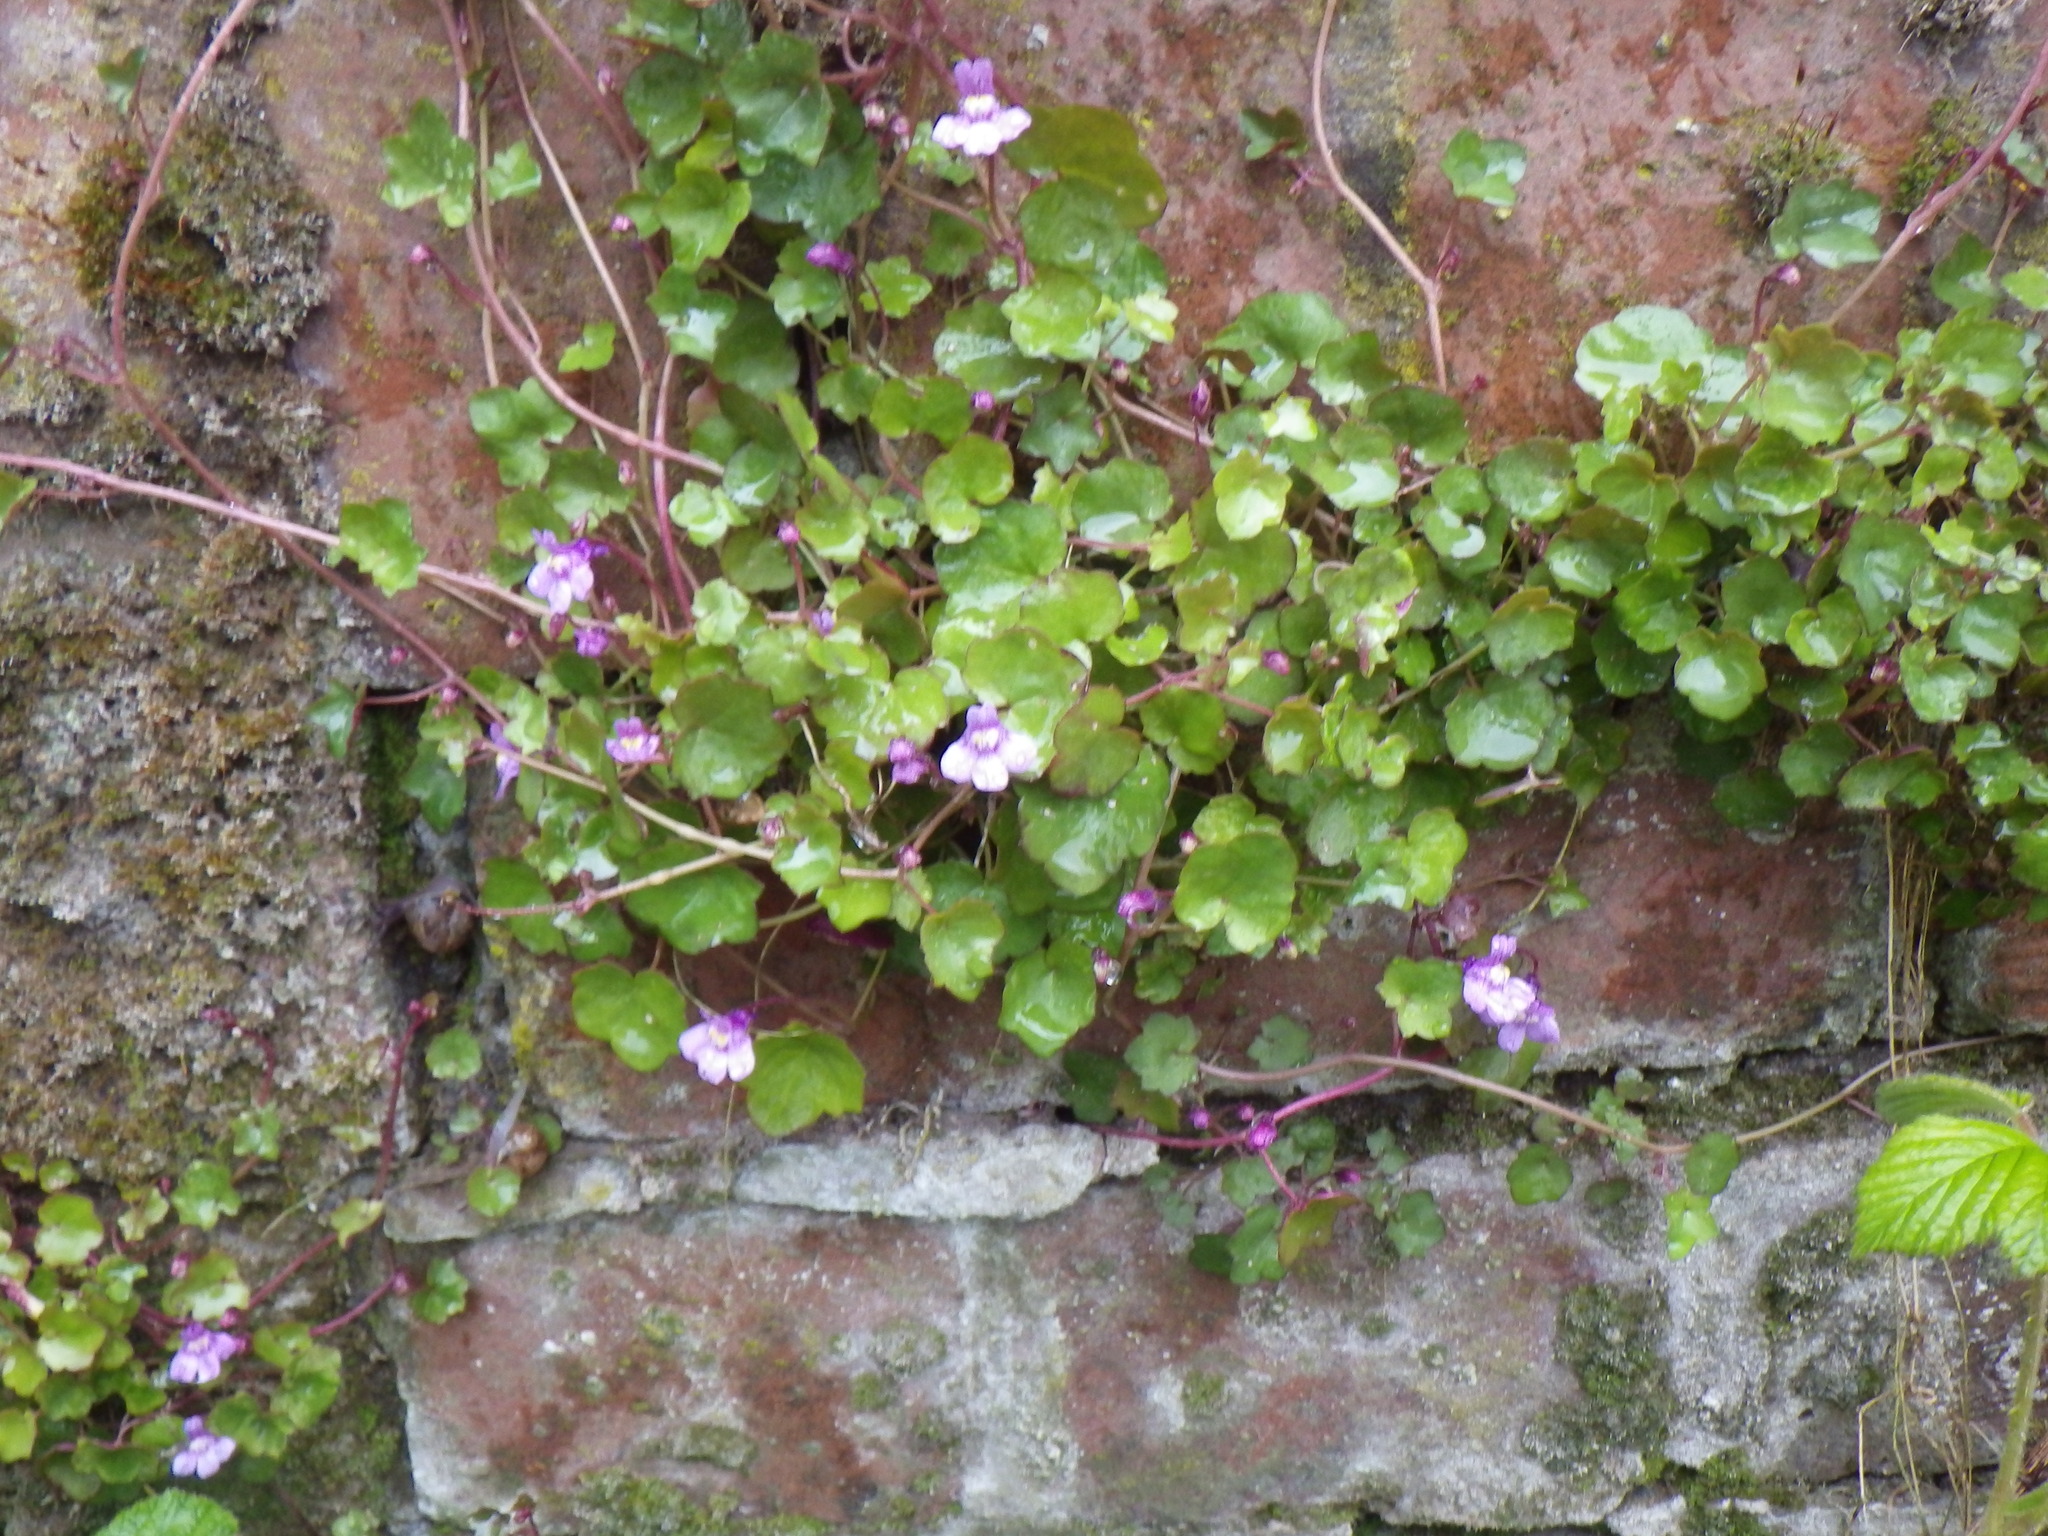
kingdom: Plantae
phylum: Tracheophyta
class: Magnoliopsida
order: Lamiales
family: Plantaginaceae
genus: Cymbalaria
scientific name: Cymbalaria muralis
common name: Ivy-leaved toadflax
